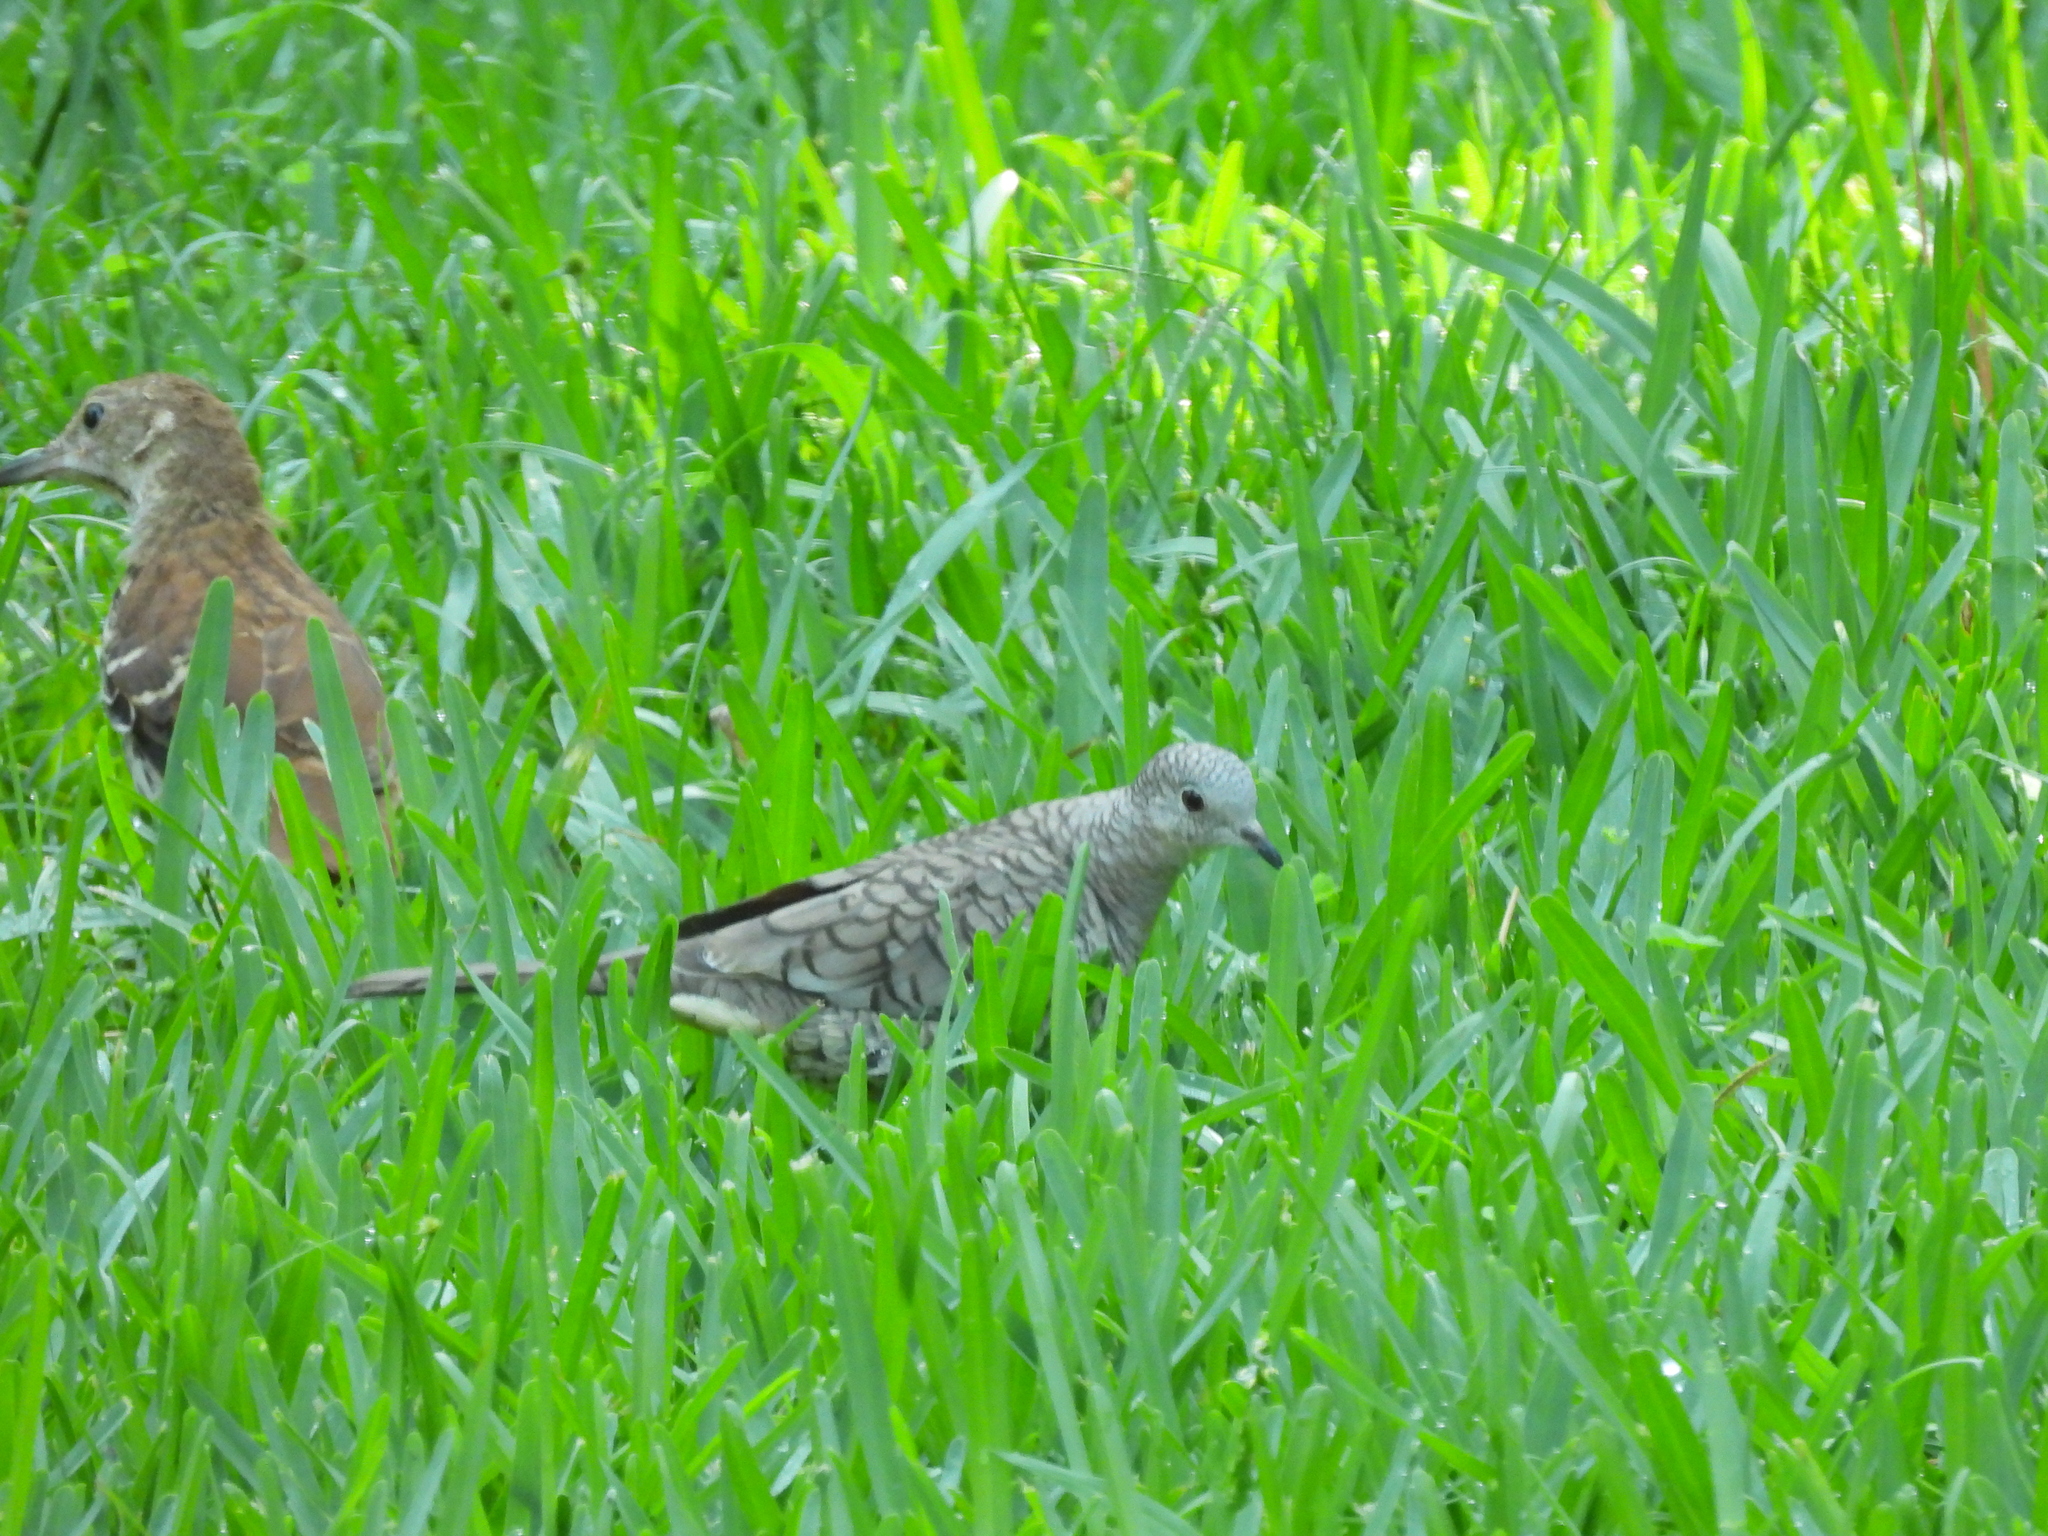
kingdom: Animalia
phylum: Chordata
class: Aves
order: Columbiformes
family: Columbidae
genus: Columbina
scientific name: Columbina inca
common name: Inca dove
